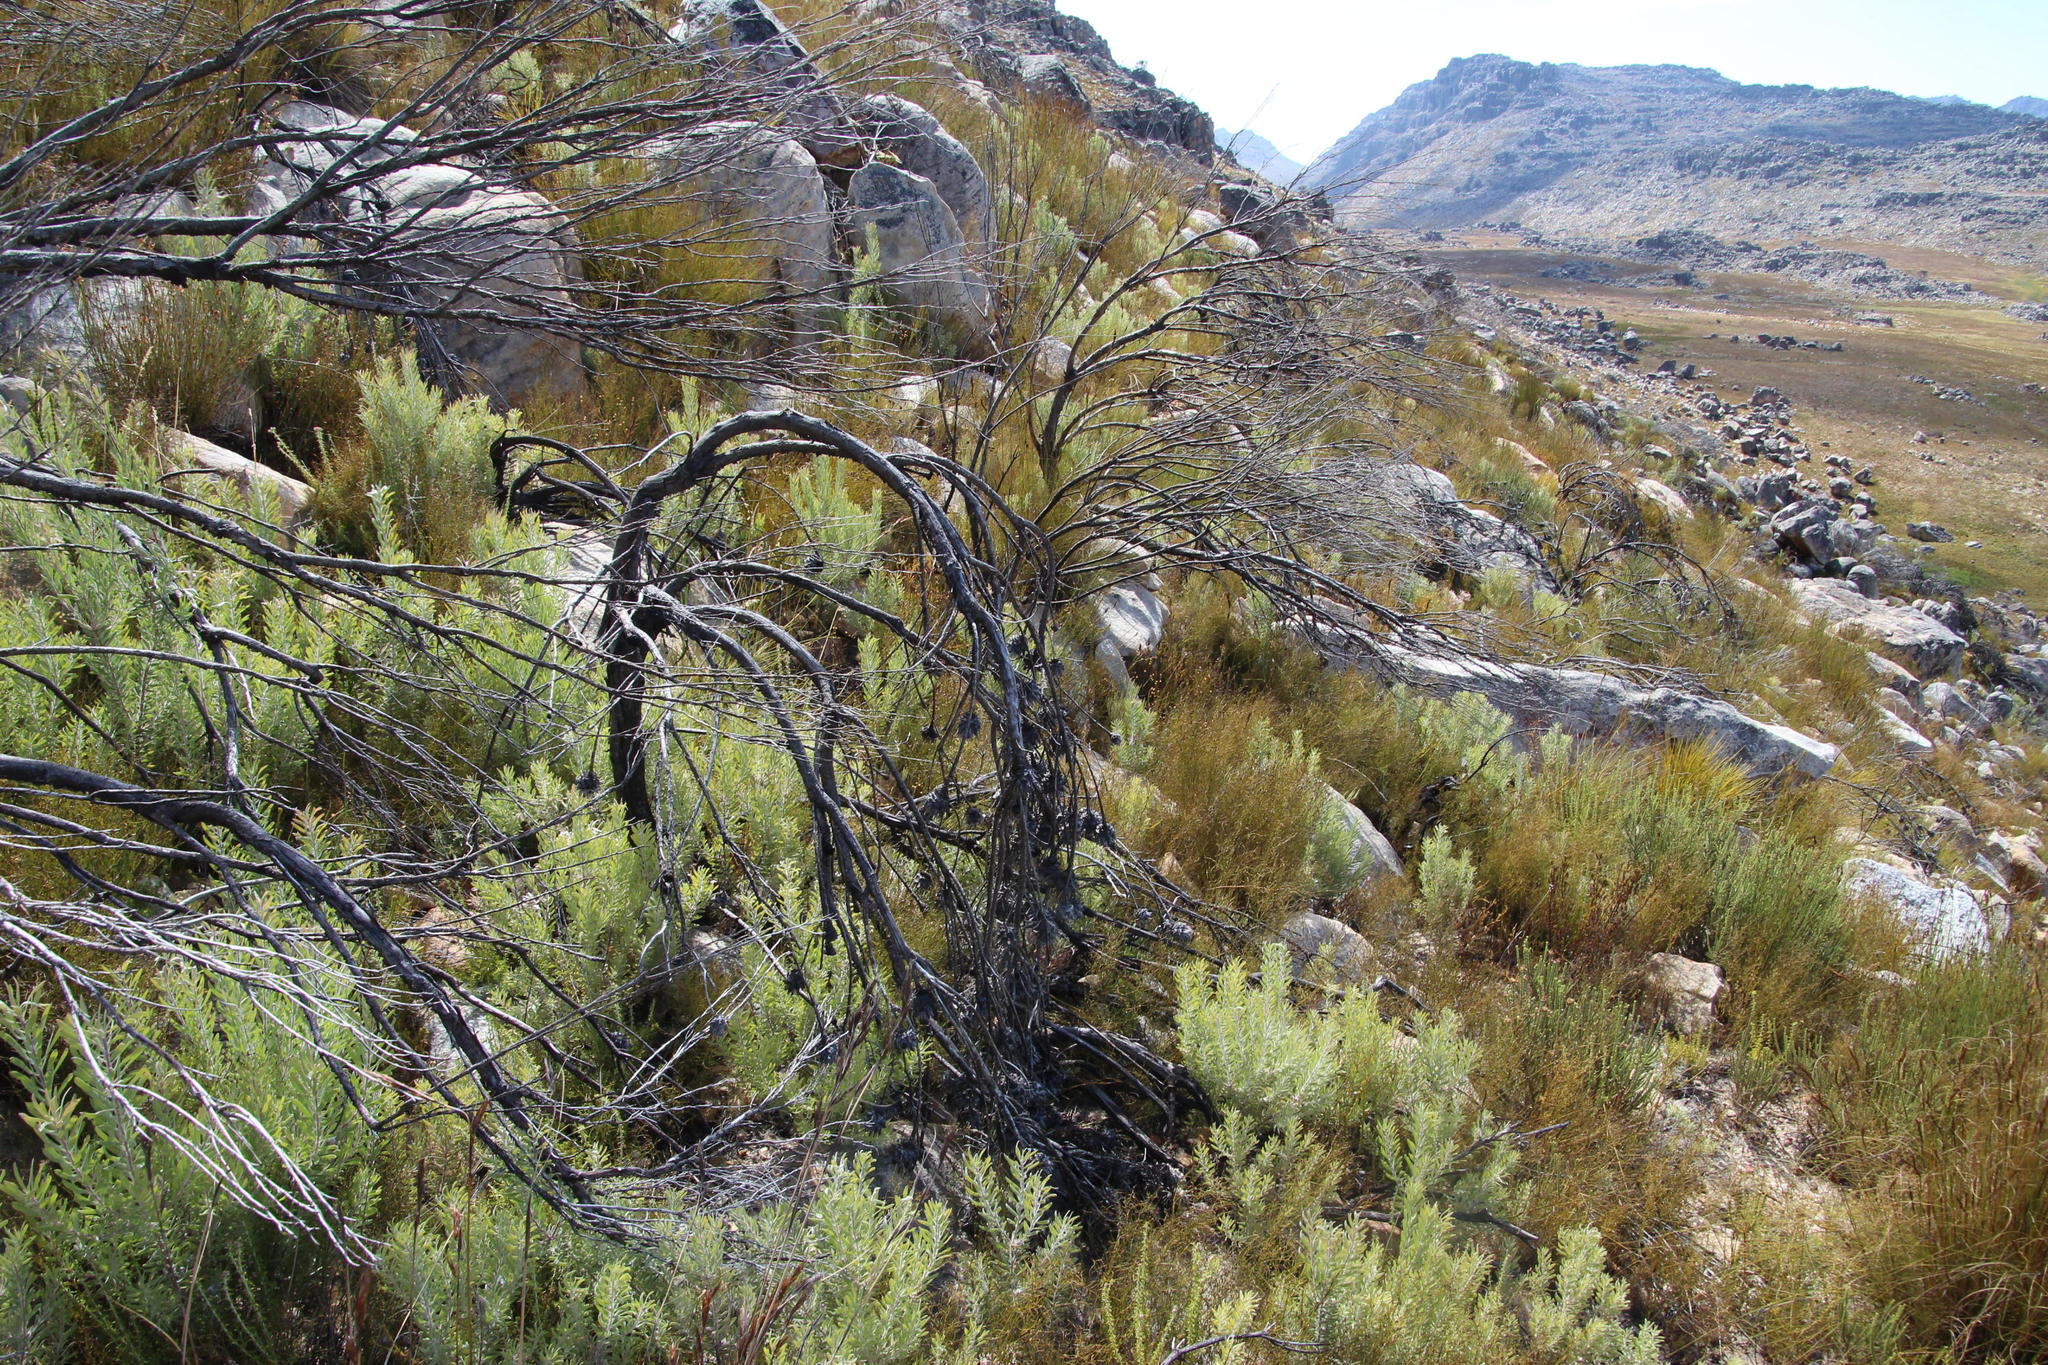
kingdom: Plantae
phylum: Tracheophyta
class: Magnoliopsida
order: Proteales
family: Proteaceae
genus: Leucadendron
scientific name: Leucadendron rubrum
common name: Spinning top
